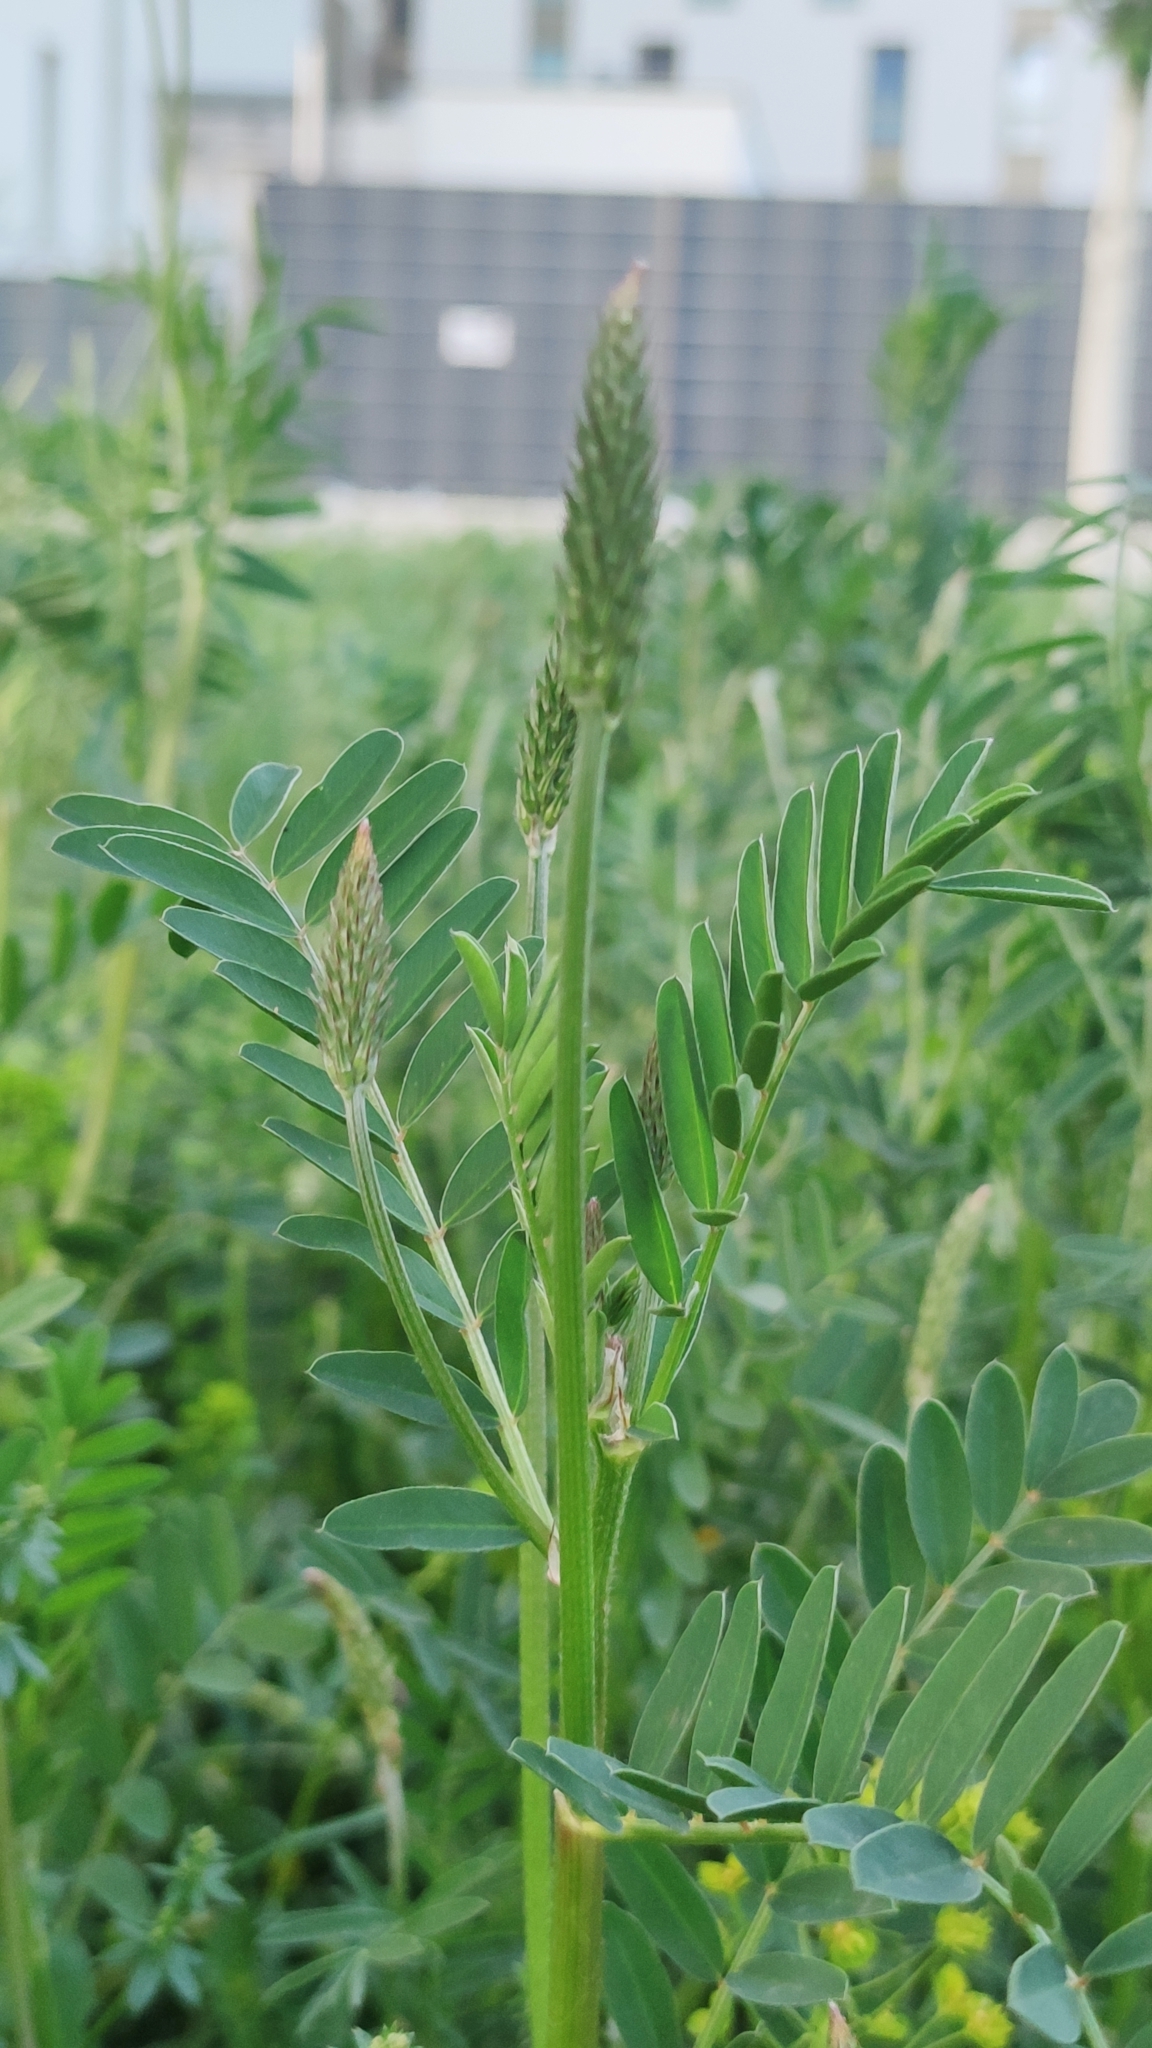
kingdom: Plantae
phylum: Tracheophyta
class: Magnoliopsida
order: Fabales
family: Fabaceae
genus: Onobrychis
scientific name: Onobrychis viciifolia
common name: Sainfoin
